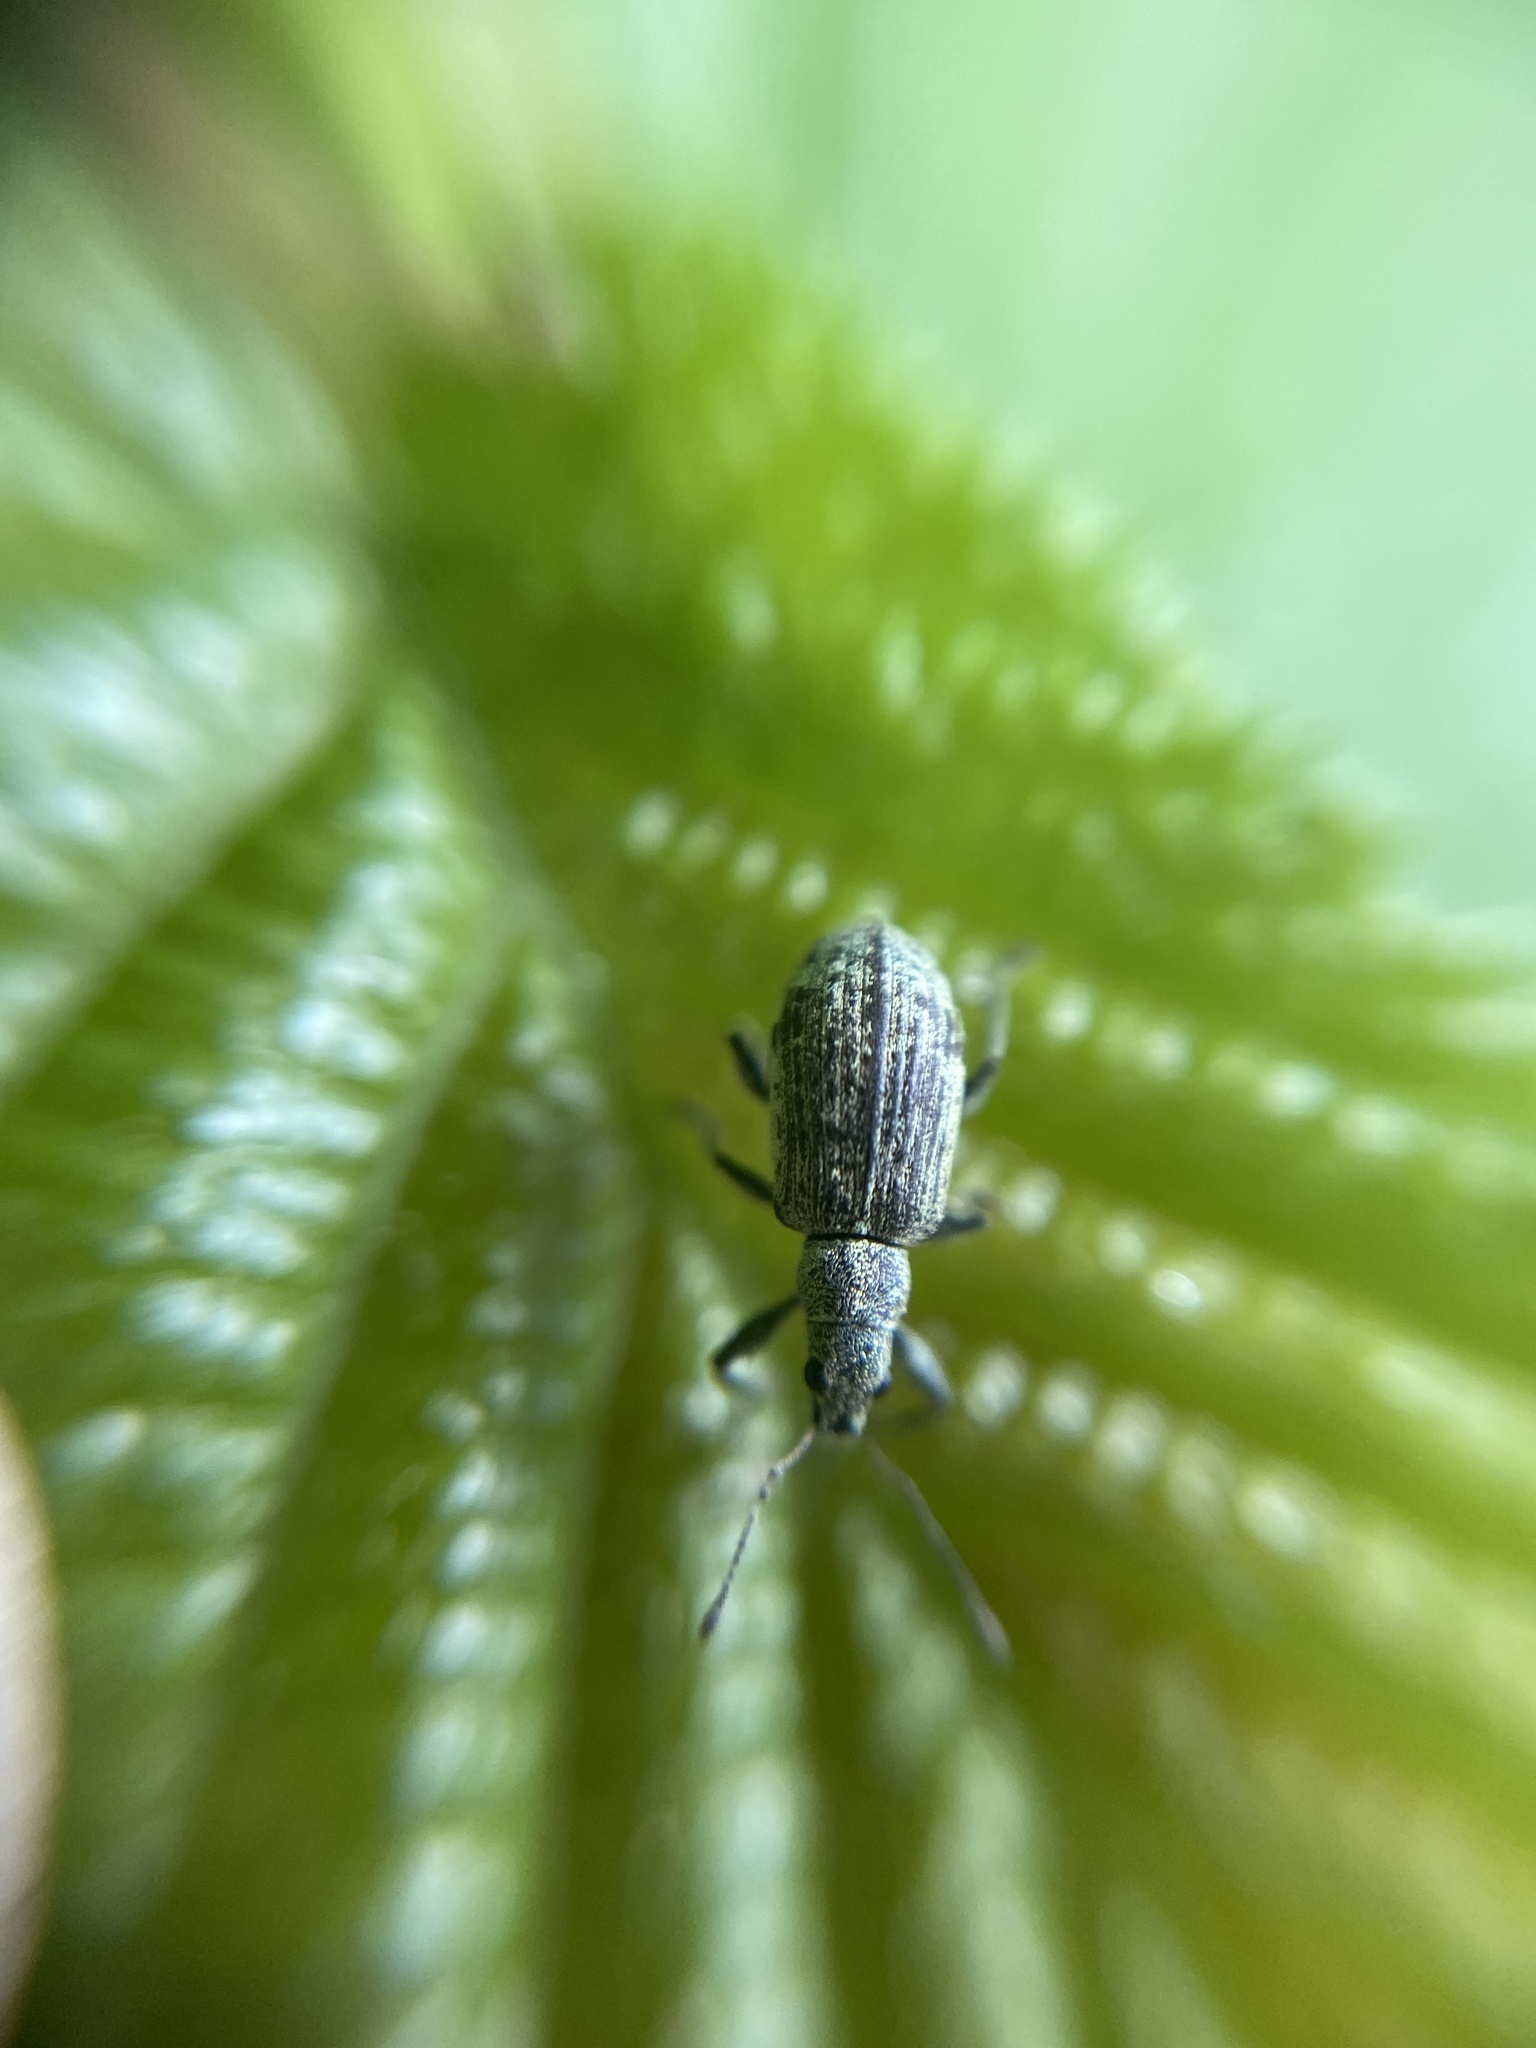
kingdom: Animalia
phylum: Arthropoda
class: Insecta
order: Coleoptera
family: Curculionidae
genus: Polydrusus
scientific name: Polydrusus cervinus
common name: Weevil
